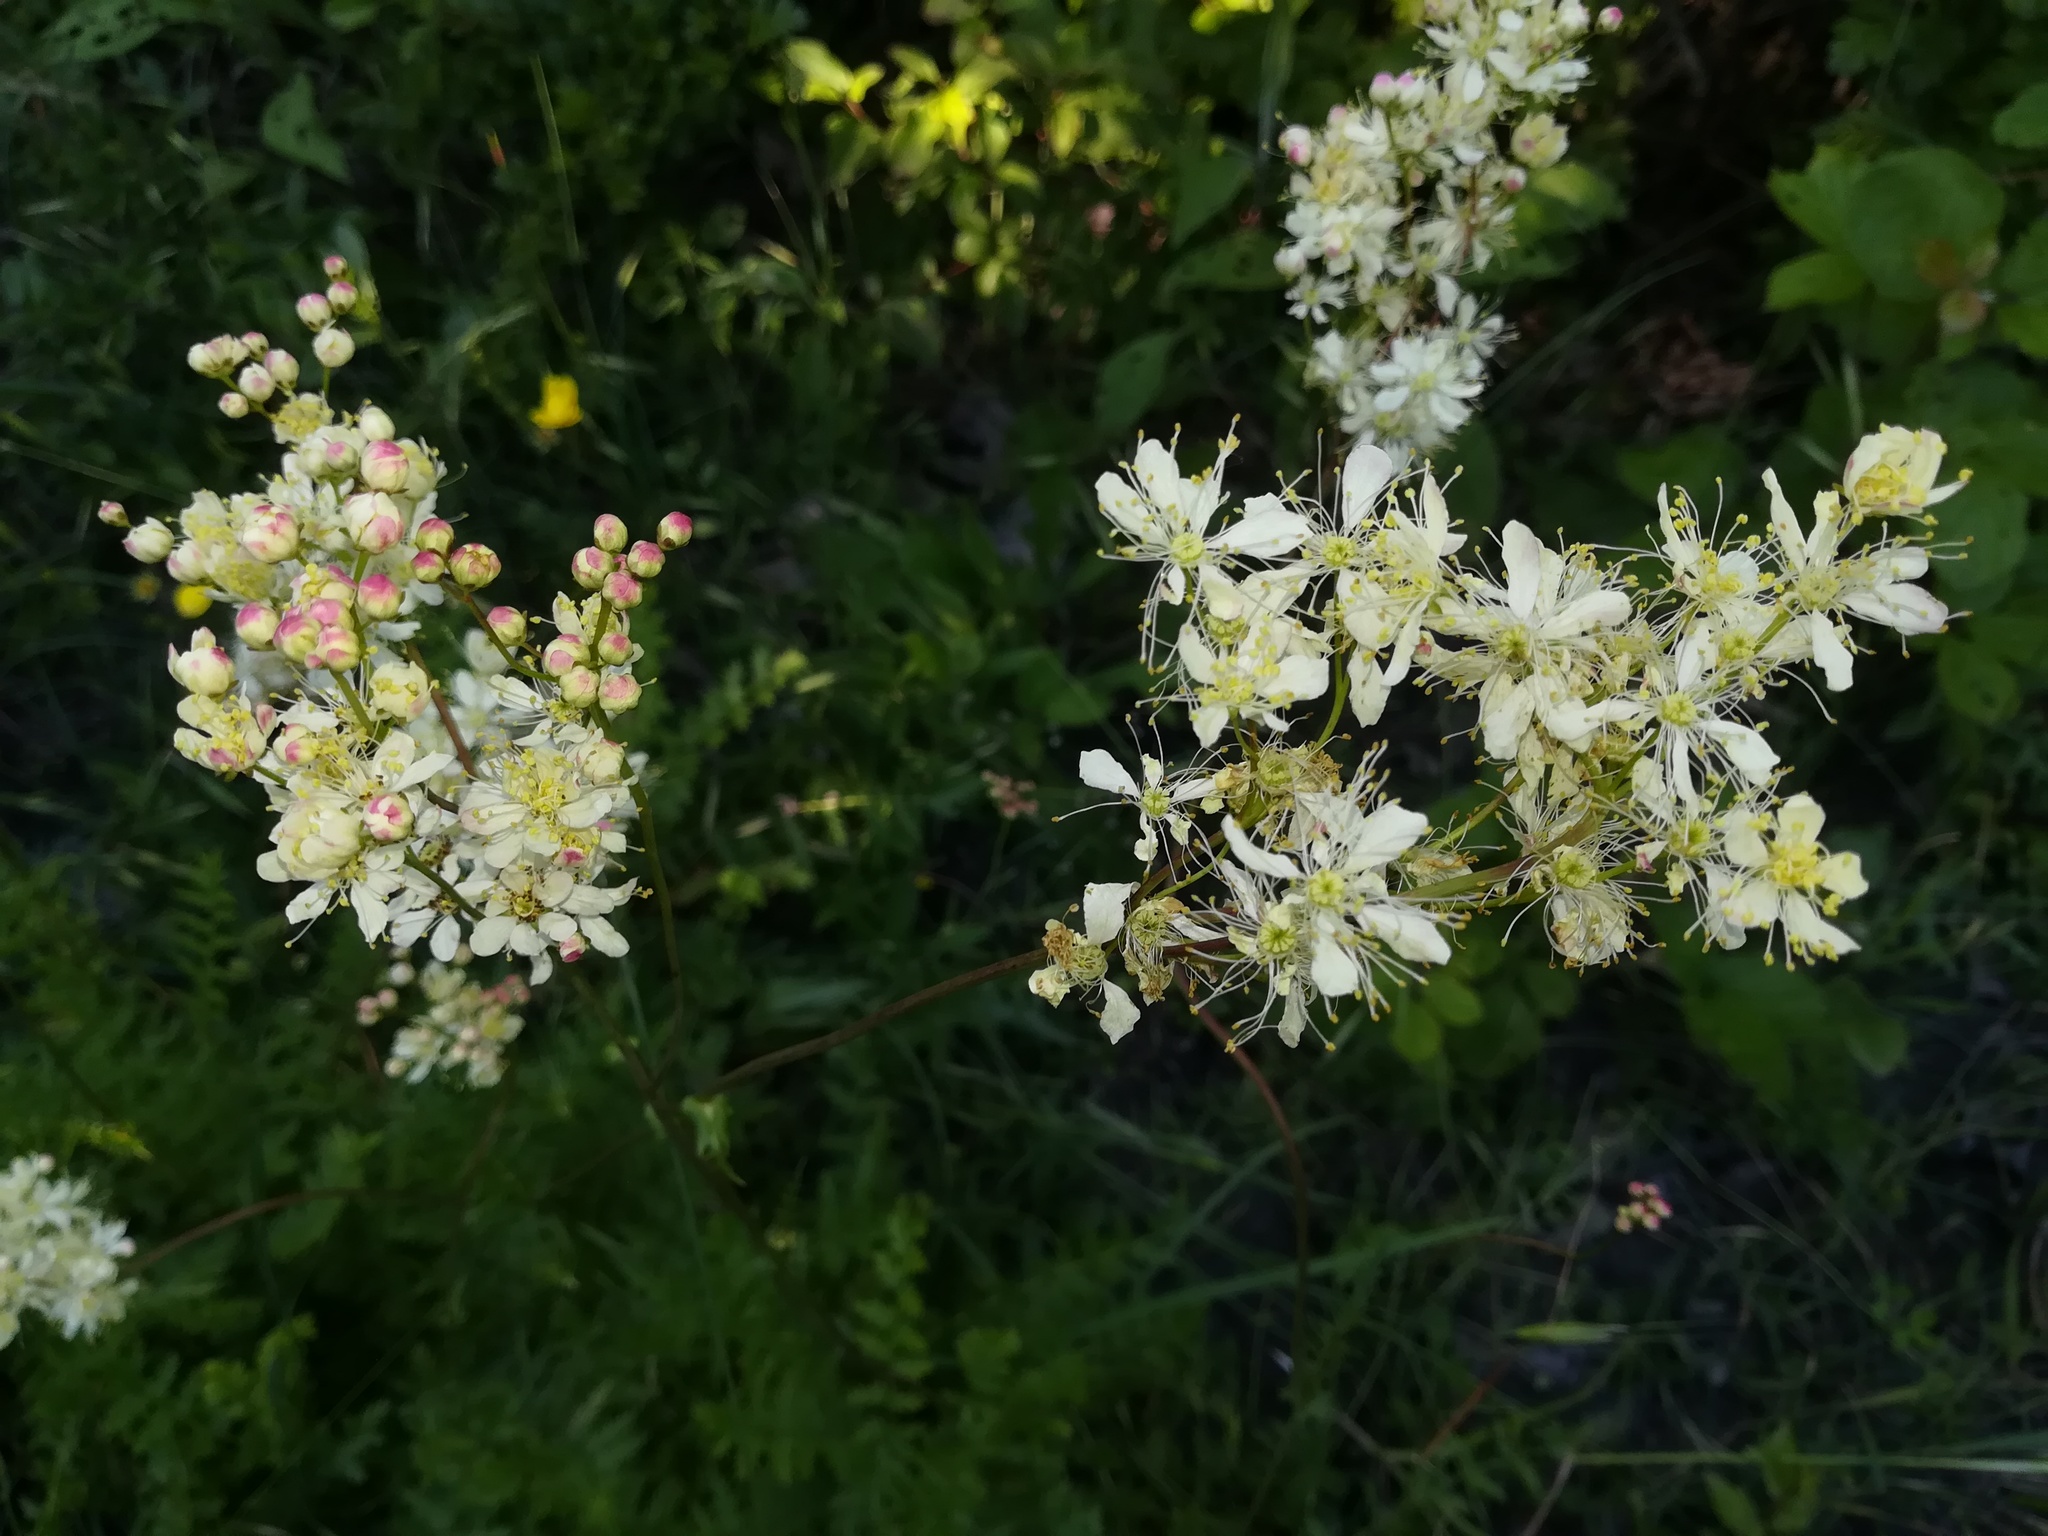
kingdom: Plantae
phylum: Tracheophyta
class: Magnoliopsida
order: Rosales
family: Rosaceae
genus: Filipendula
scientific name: Filipendula vulgaris
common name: Dropwort
